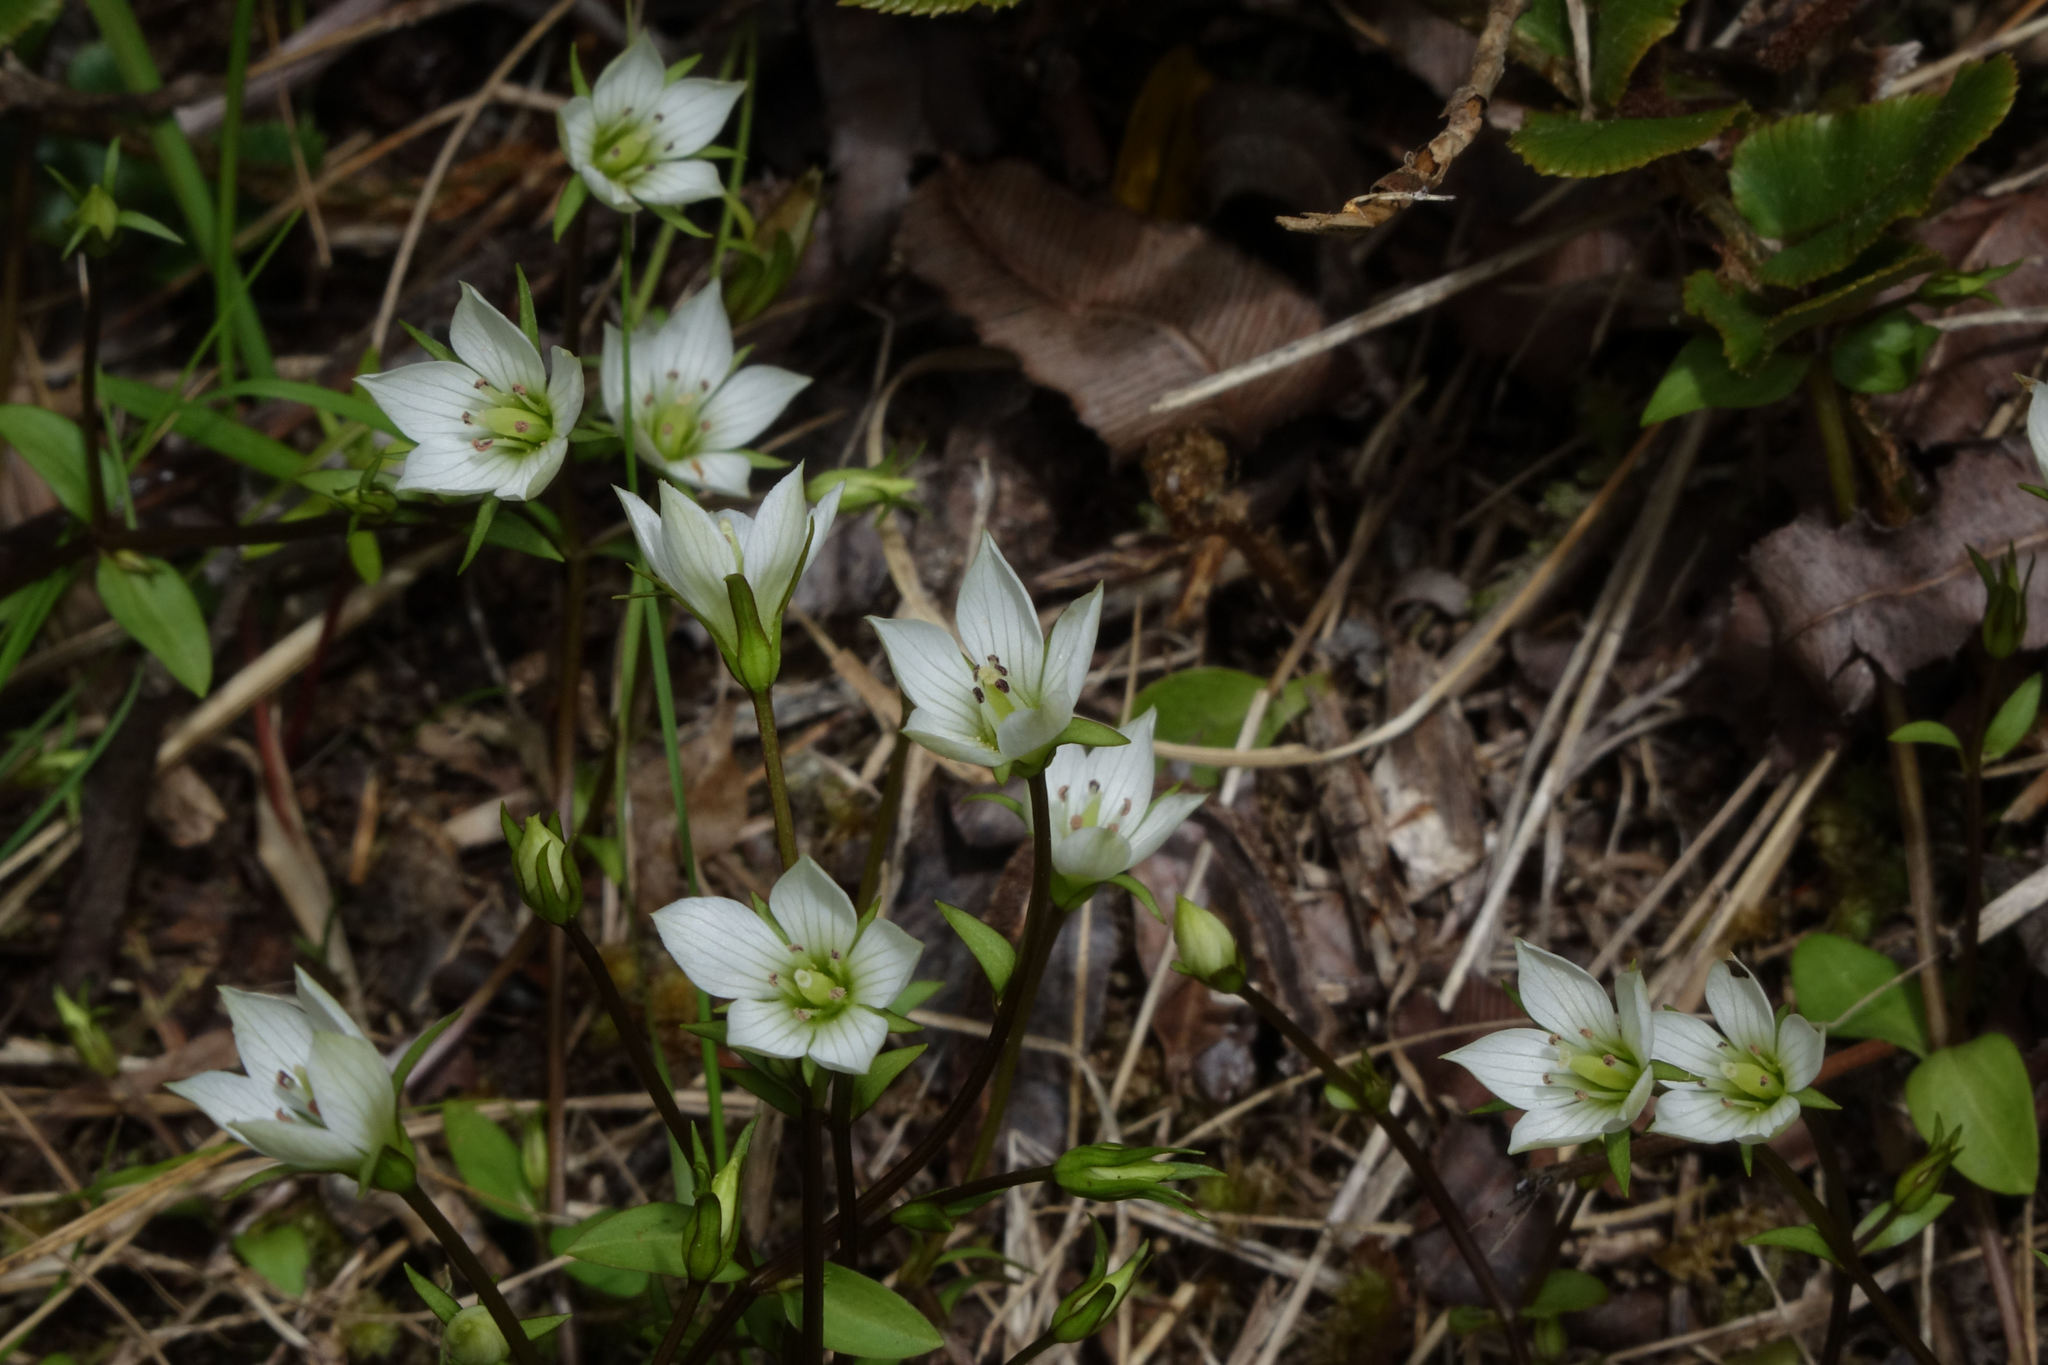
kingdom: Plantae
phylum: Tracheophyta
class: Magnoliopsida
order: Gentianales
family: Gentianaceae
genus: Gentianella
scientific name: Gentianella grisebachii
